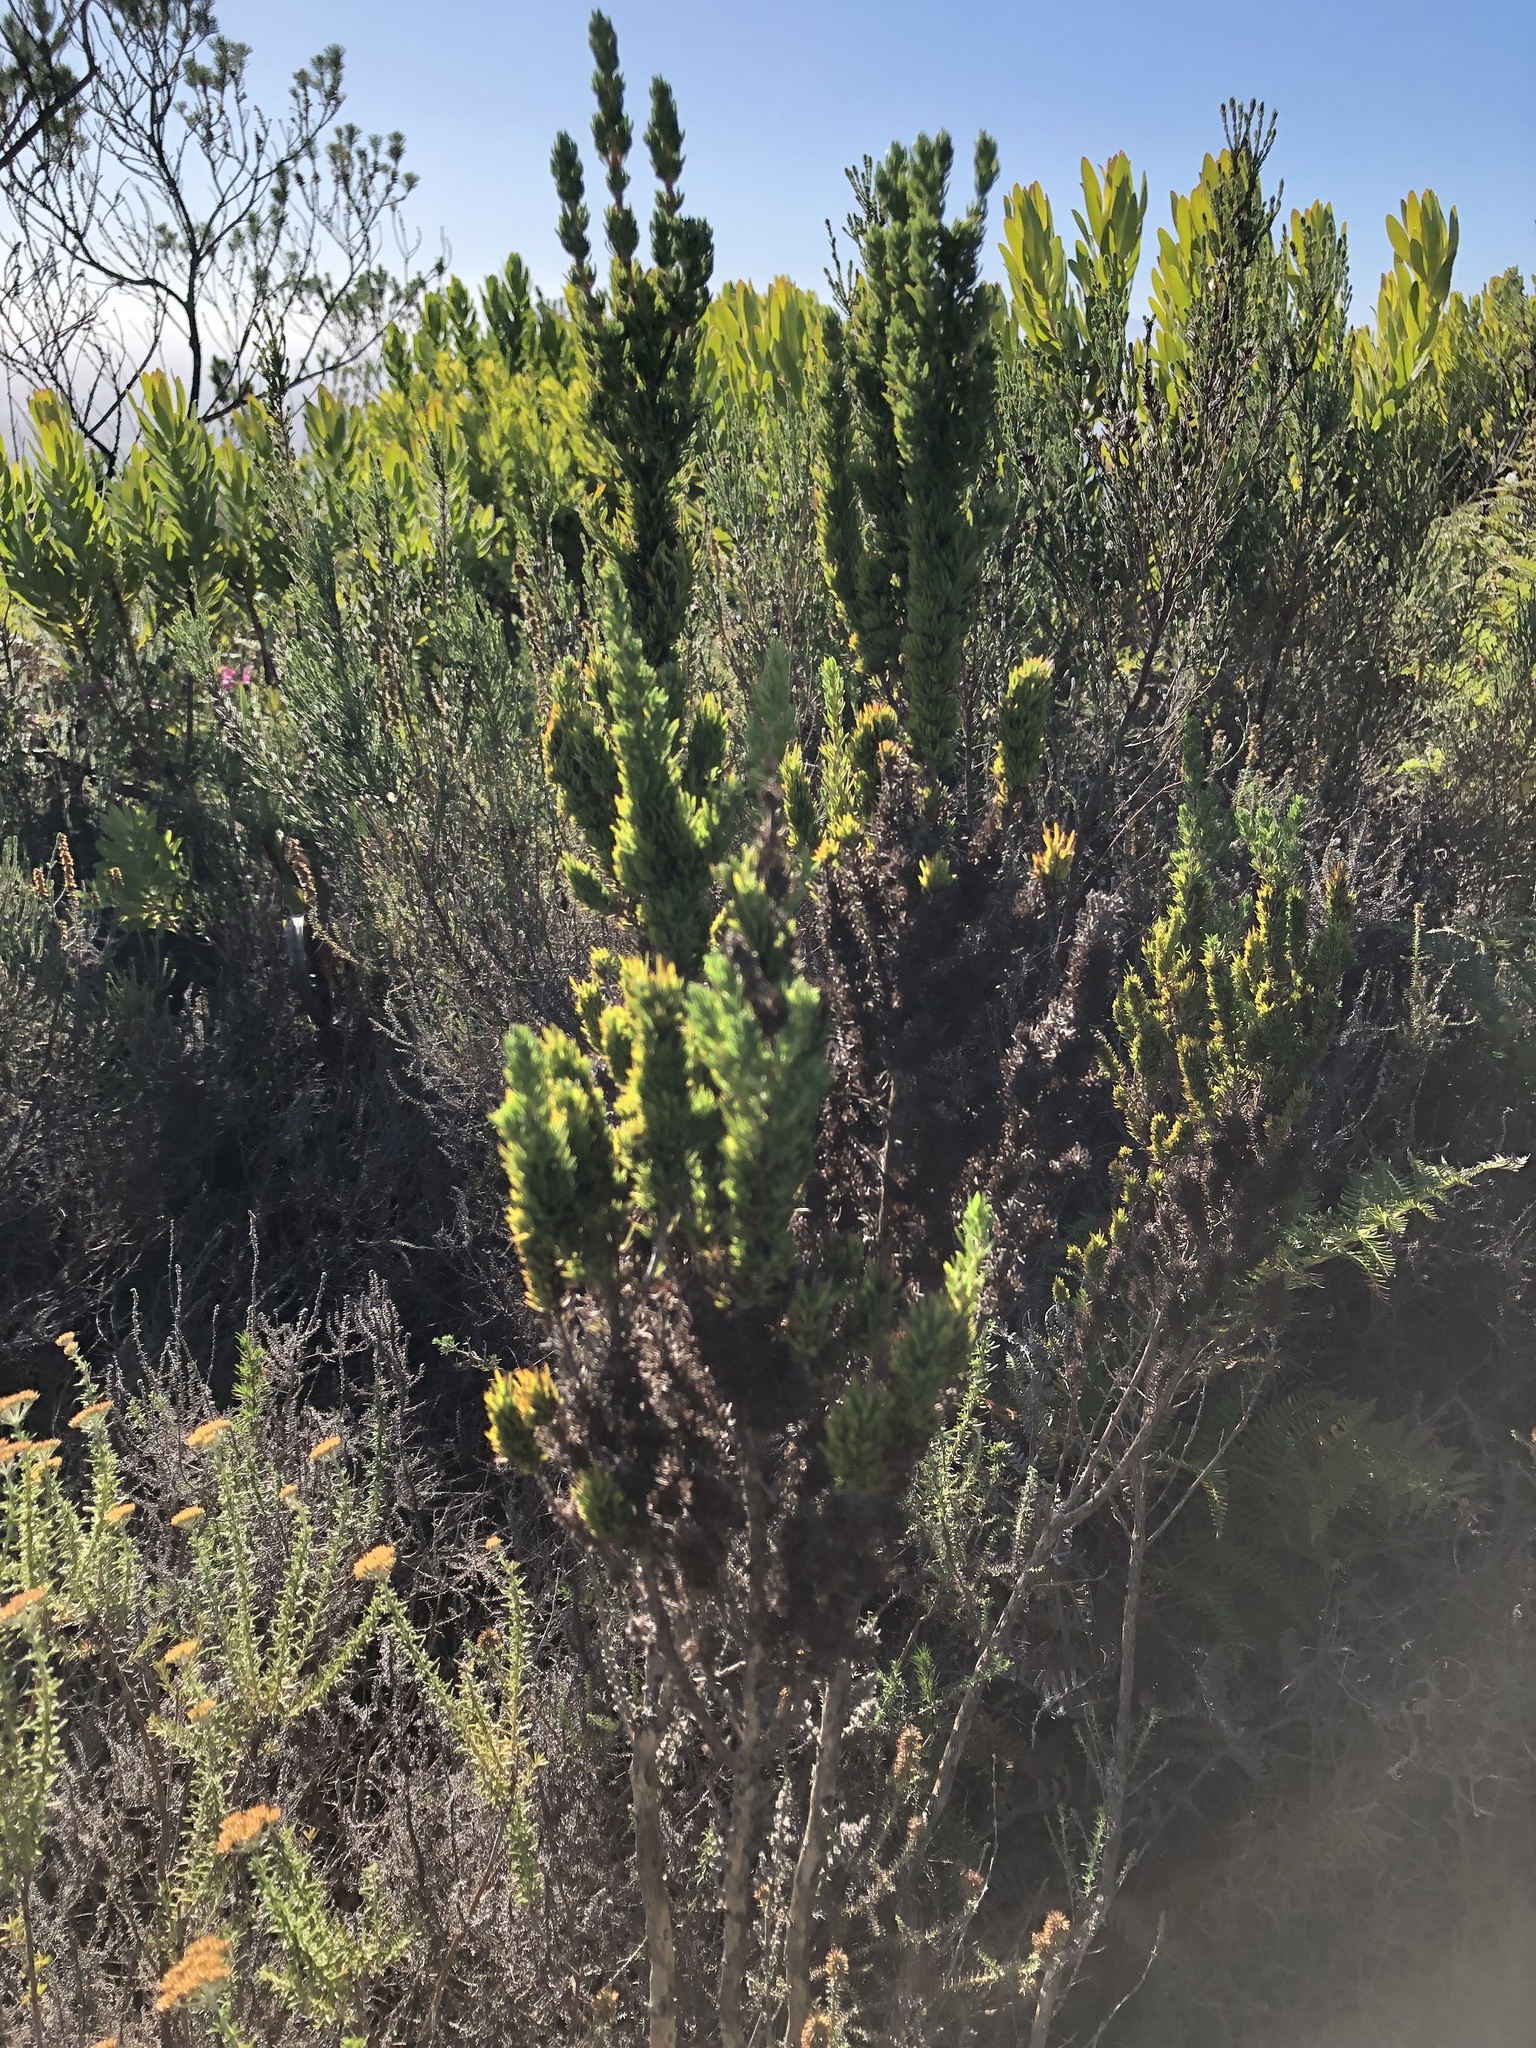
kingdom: Plantae
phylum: Tracheophyta
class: Magnoliopsida
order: Gentianales
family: Rubiaceae
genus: Anthospermum
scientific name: Anthospermum aethiopicum
